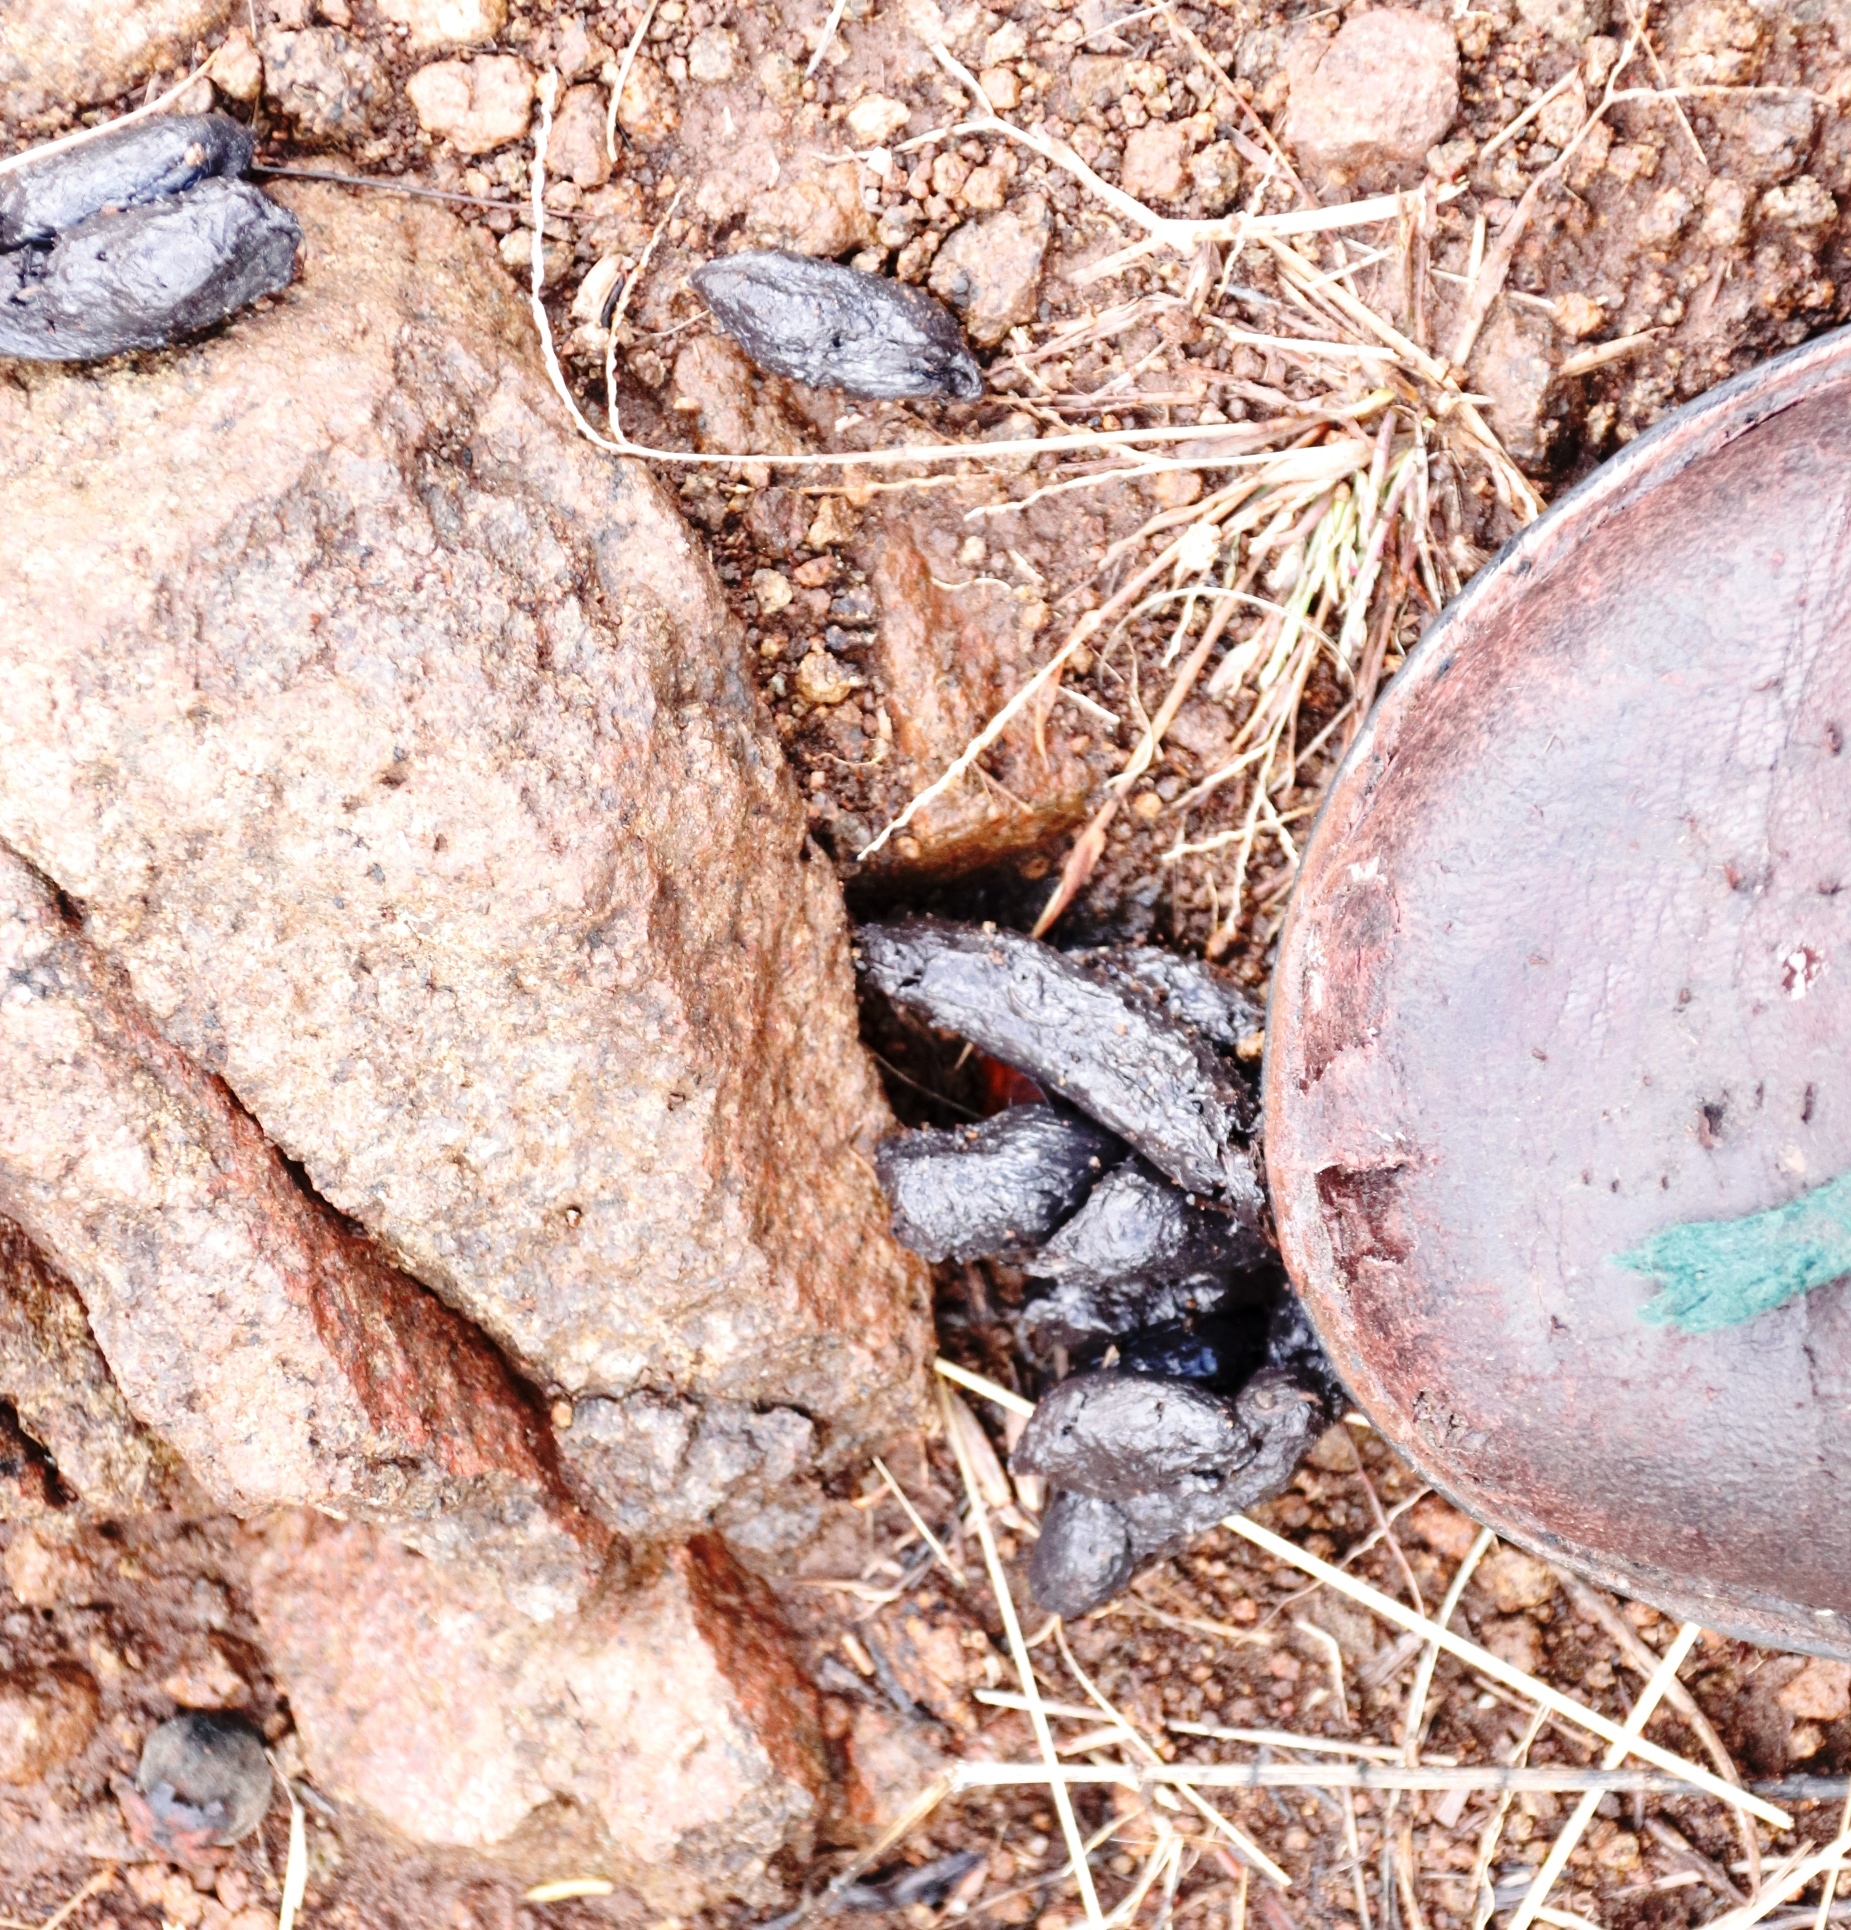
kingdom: Animalia
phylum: Chordata
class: Mammalia
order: Rodentia
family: Hystricidae
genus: Hystrix
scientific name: Hystrix africaeaustralis
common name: Cape porcupine
